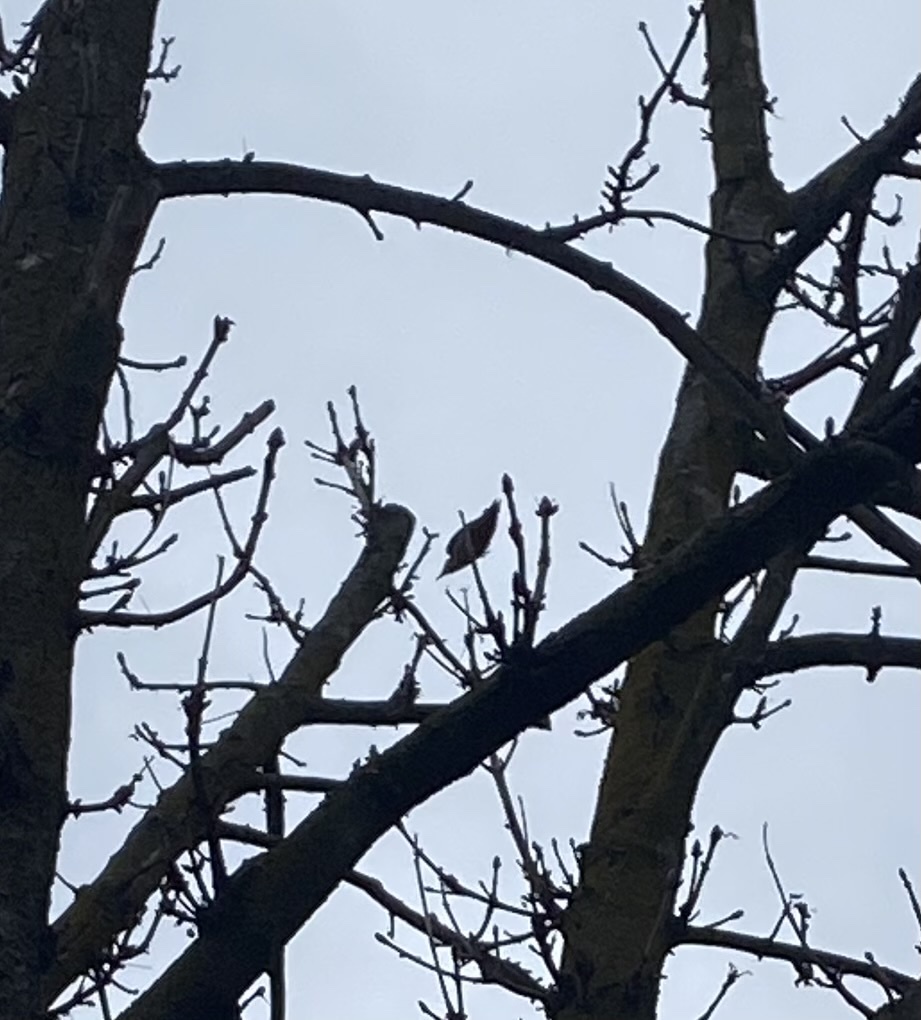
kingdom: Animalia
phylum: Chordata
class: Aves
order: Piciformes
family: Picidae
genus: Dendrocopos
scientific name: Dendrocopos major
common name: Great spotted woodpecker
